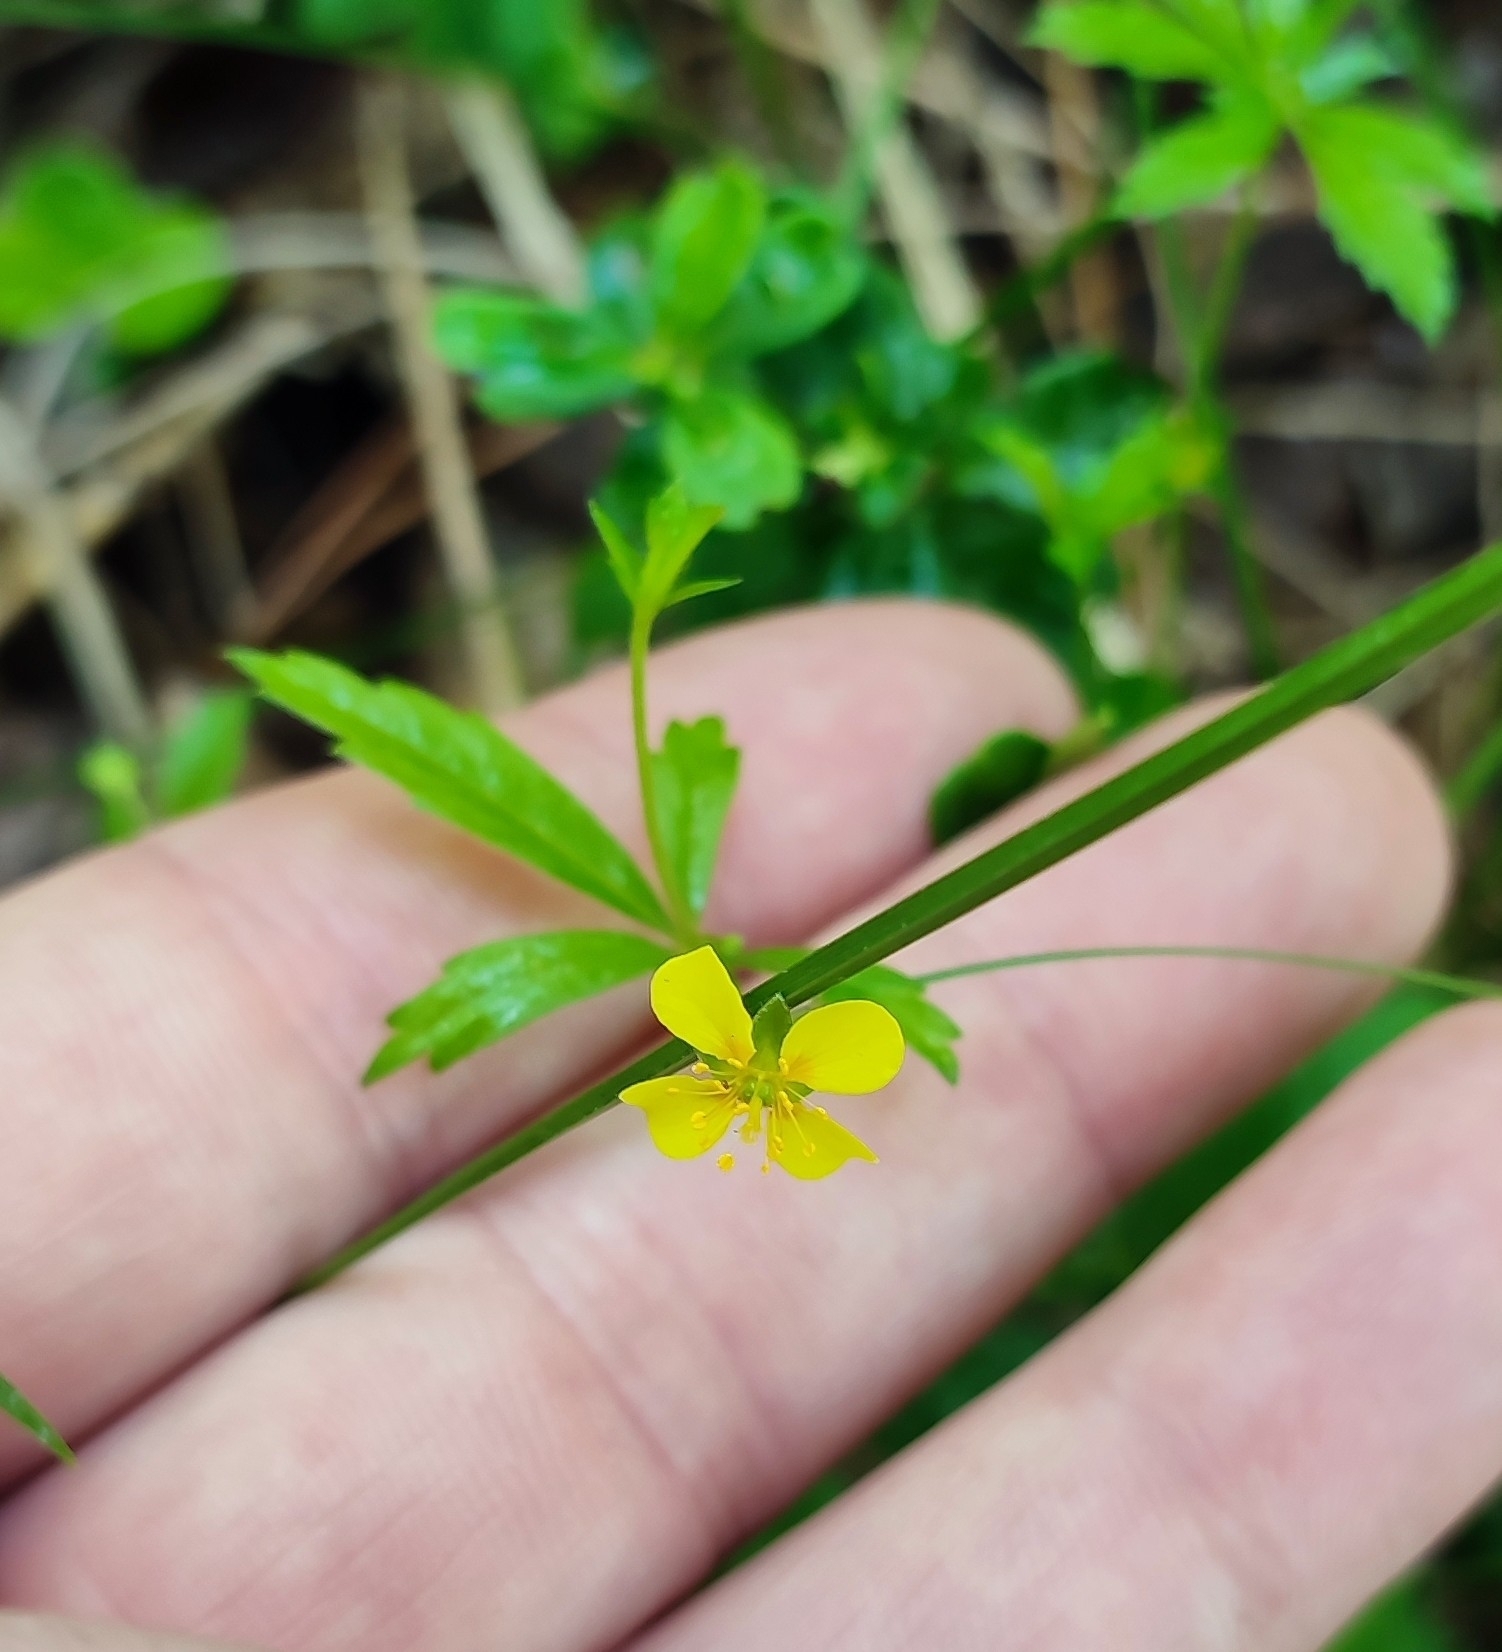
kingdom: Plantae
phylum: Tracheophyta
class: Magnoliopsida
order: Rosales
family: Rosaceae
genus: Potentilla
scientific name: Potentilla erecta
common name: Tormentil
